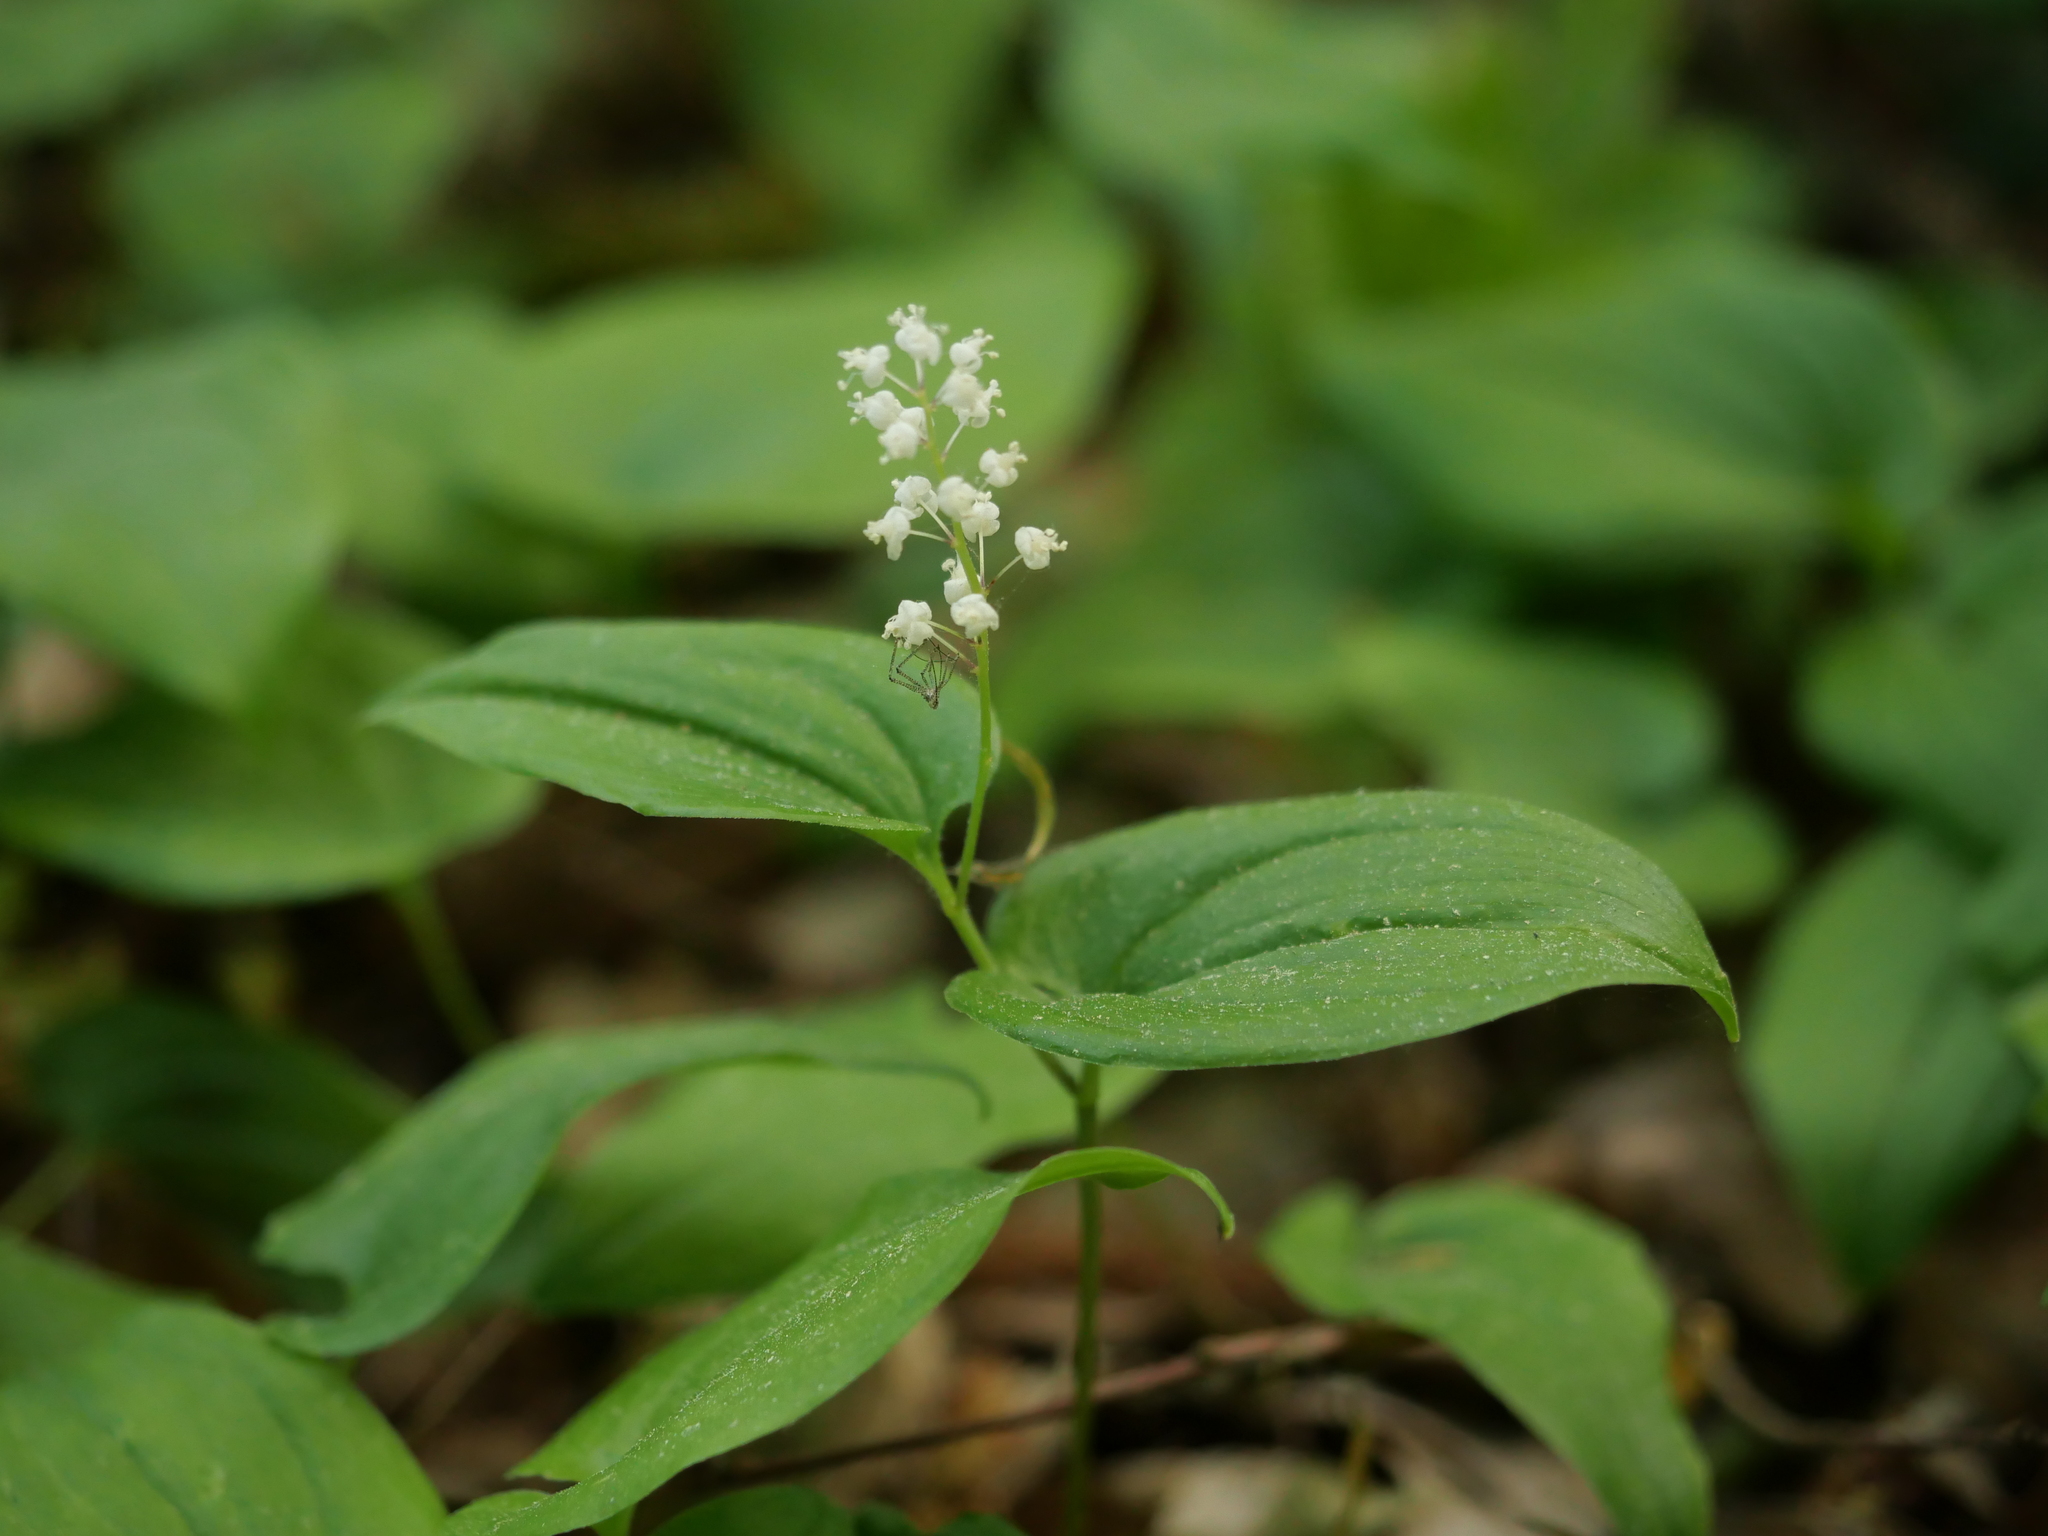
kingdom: Plantae
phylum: Tracheophyta
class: Liliopsida
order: Asparagales
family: Asparagaceae
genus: Maianthemum
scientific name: Maianthemum bifolium
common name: May lily
